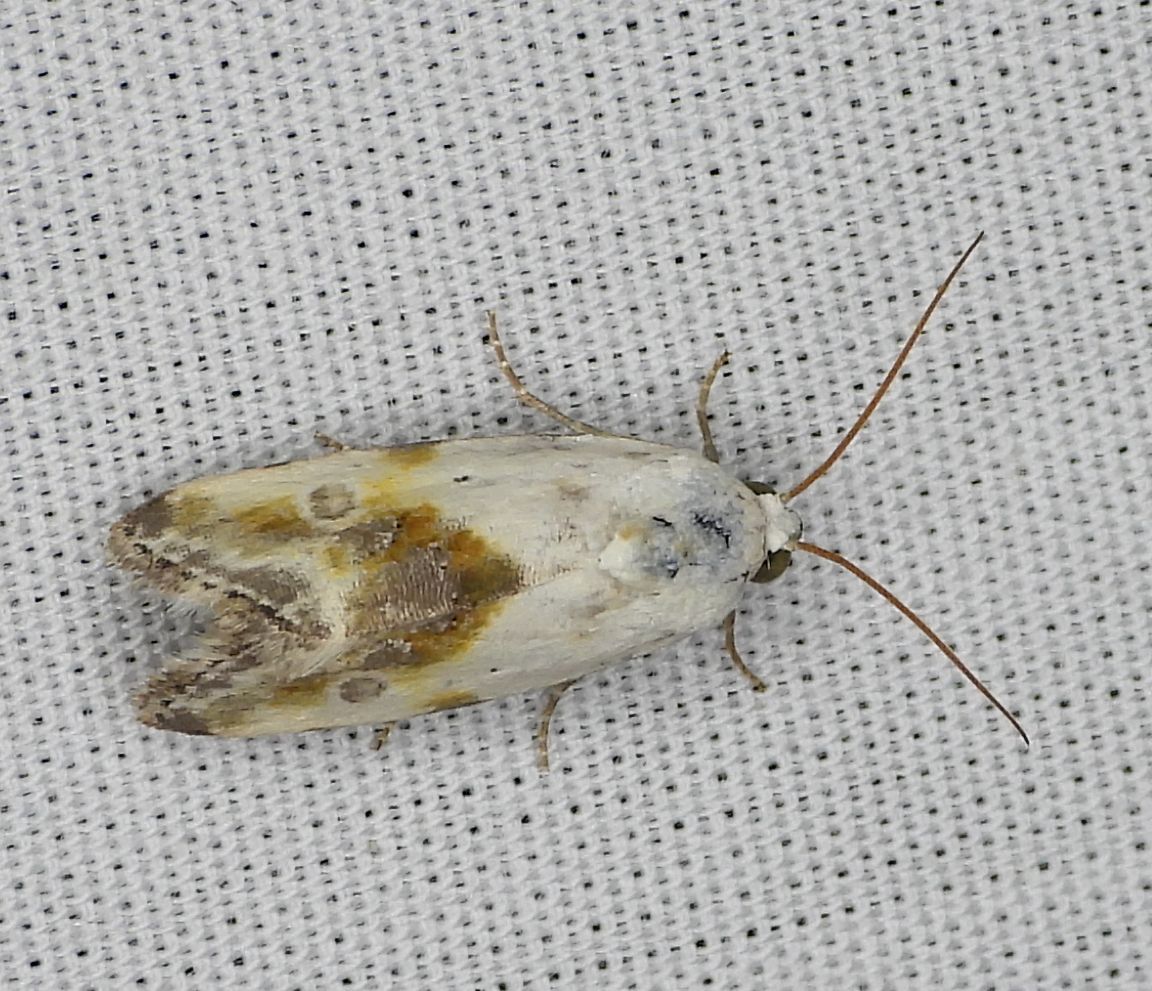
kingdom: Animalia
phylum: Arthropoda
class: Insecta
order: Lepidoptera
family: Noctuidae
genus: Acontia
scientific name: Acontia candefacta
